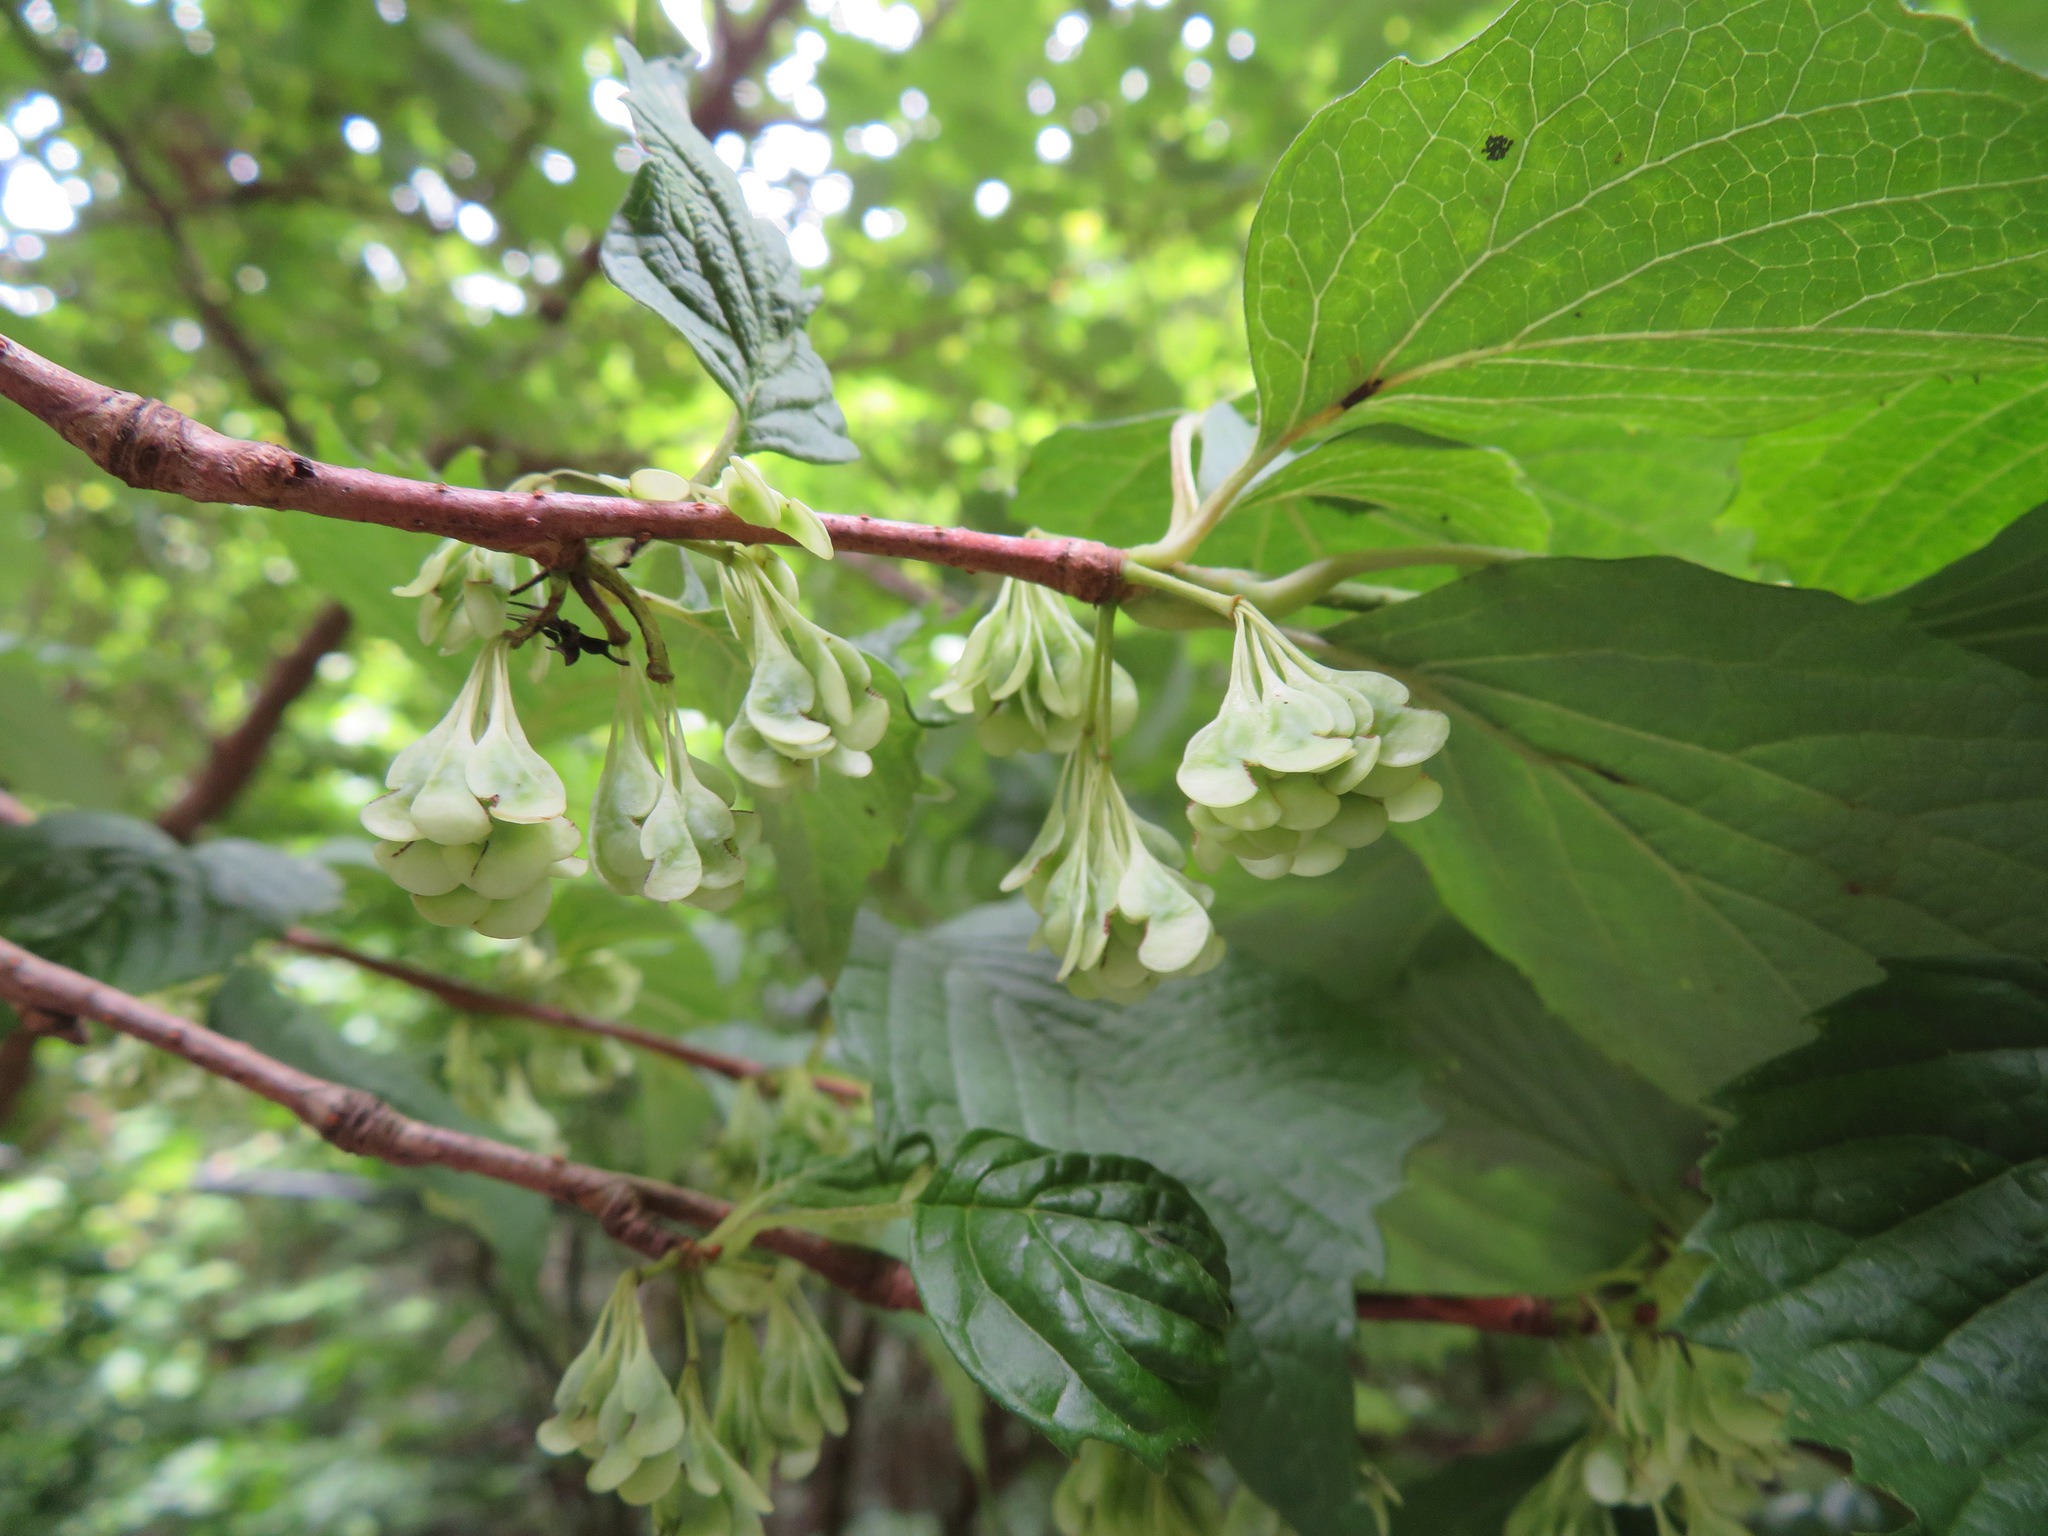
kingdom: Plantae
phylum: Tracheophyta
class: Magnoliopsida
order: Ranunculales
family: Eupteleaceae
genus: Euptelea
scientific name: Euptelea polyandra
